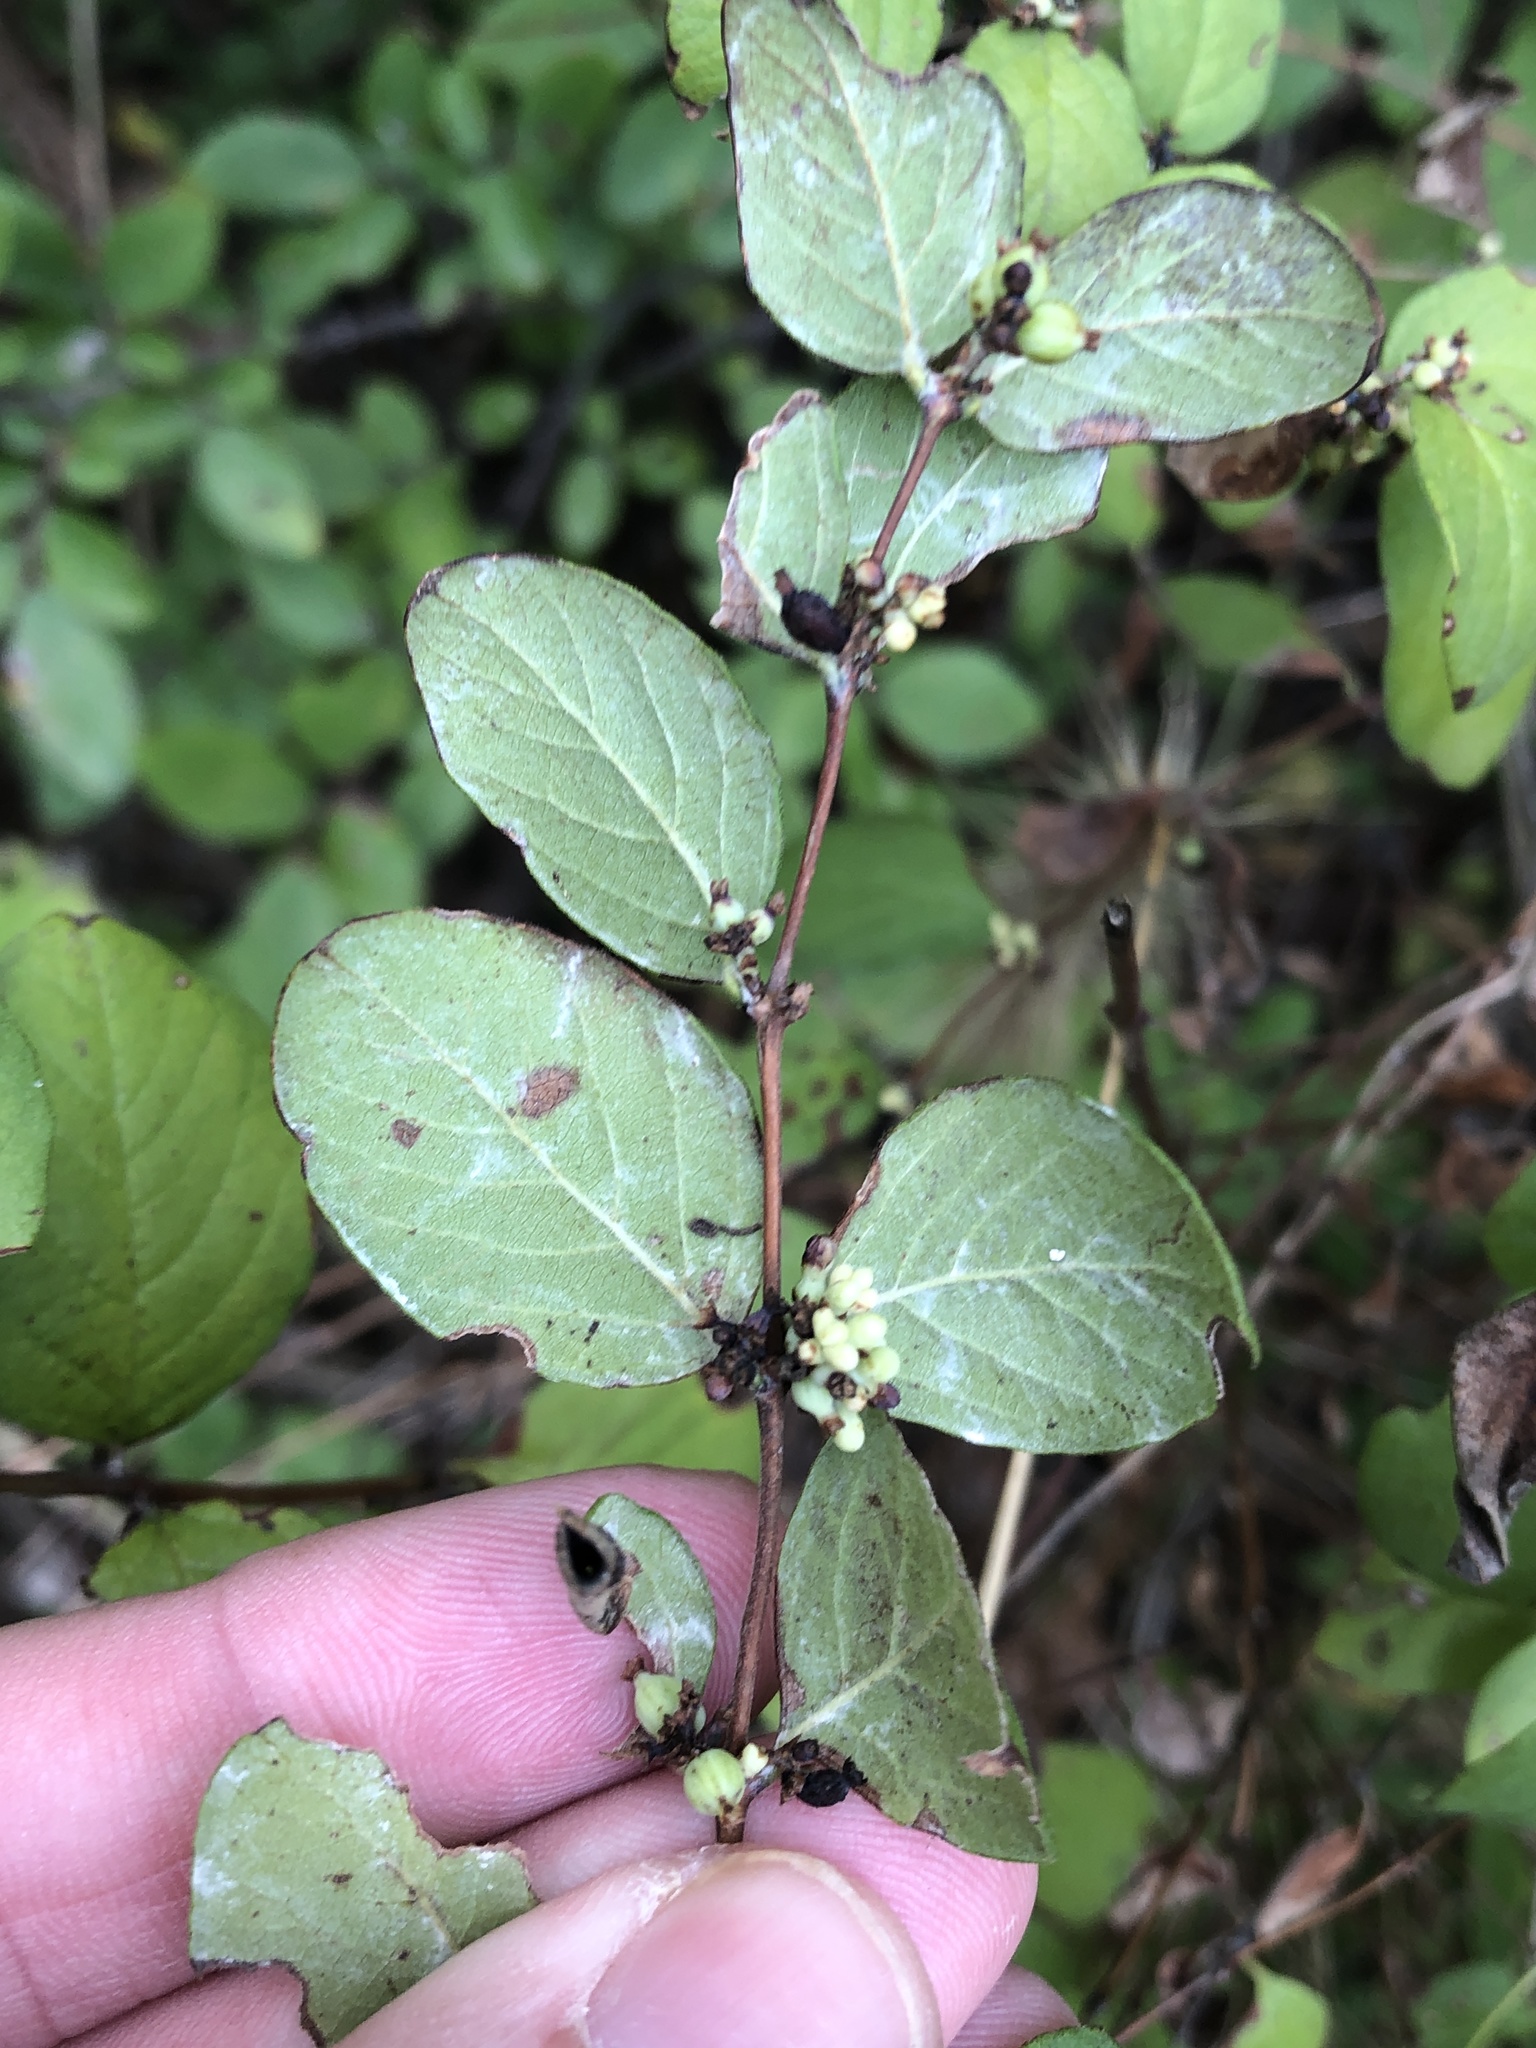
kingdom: Plantae
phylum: Tracheophyta
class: Magnoliopsida
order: Dipsacales
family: Caprifoliaceae
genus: Symphoricarpos
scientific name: Symphoricarpos orbiculatus
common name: Coralberry
